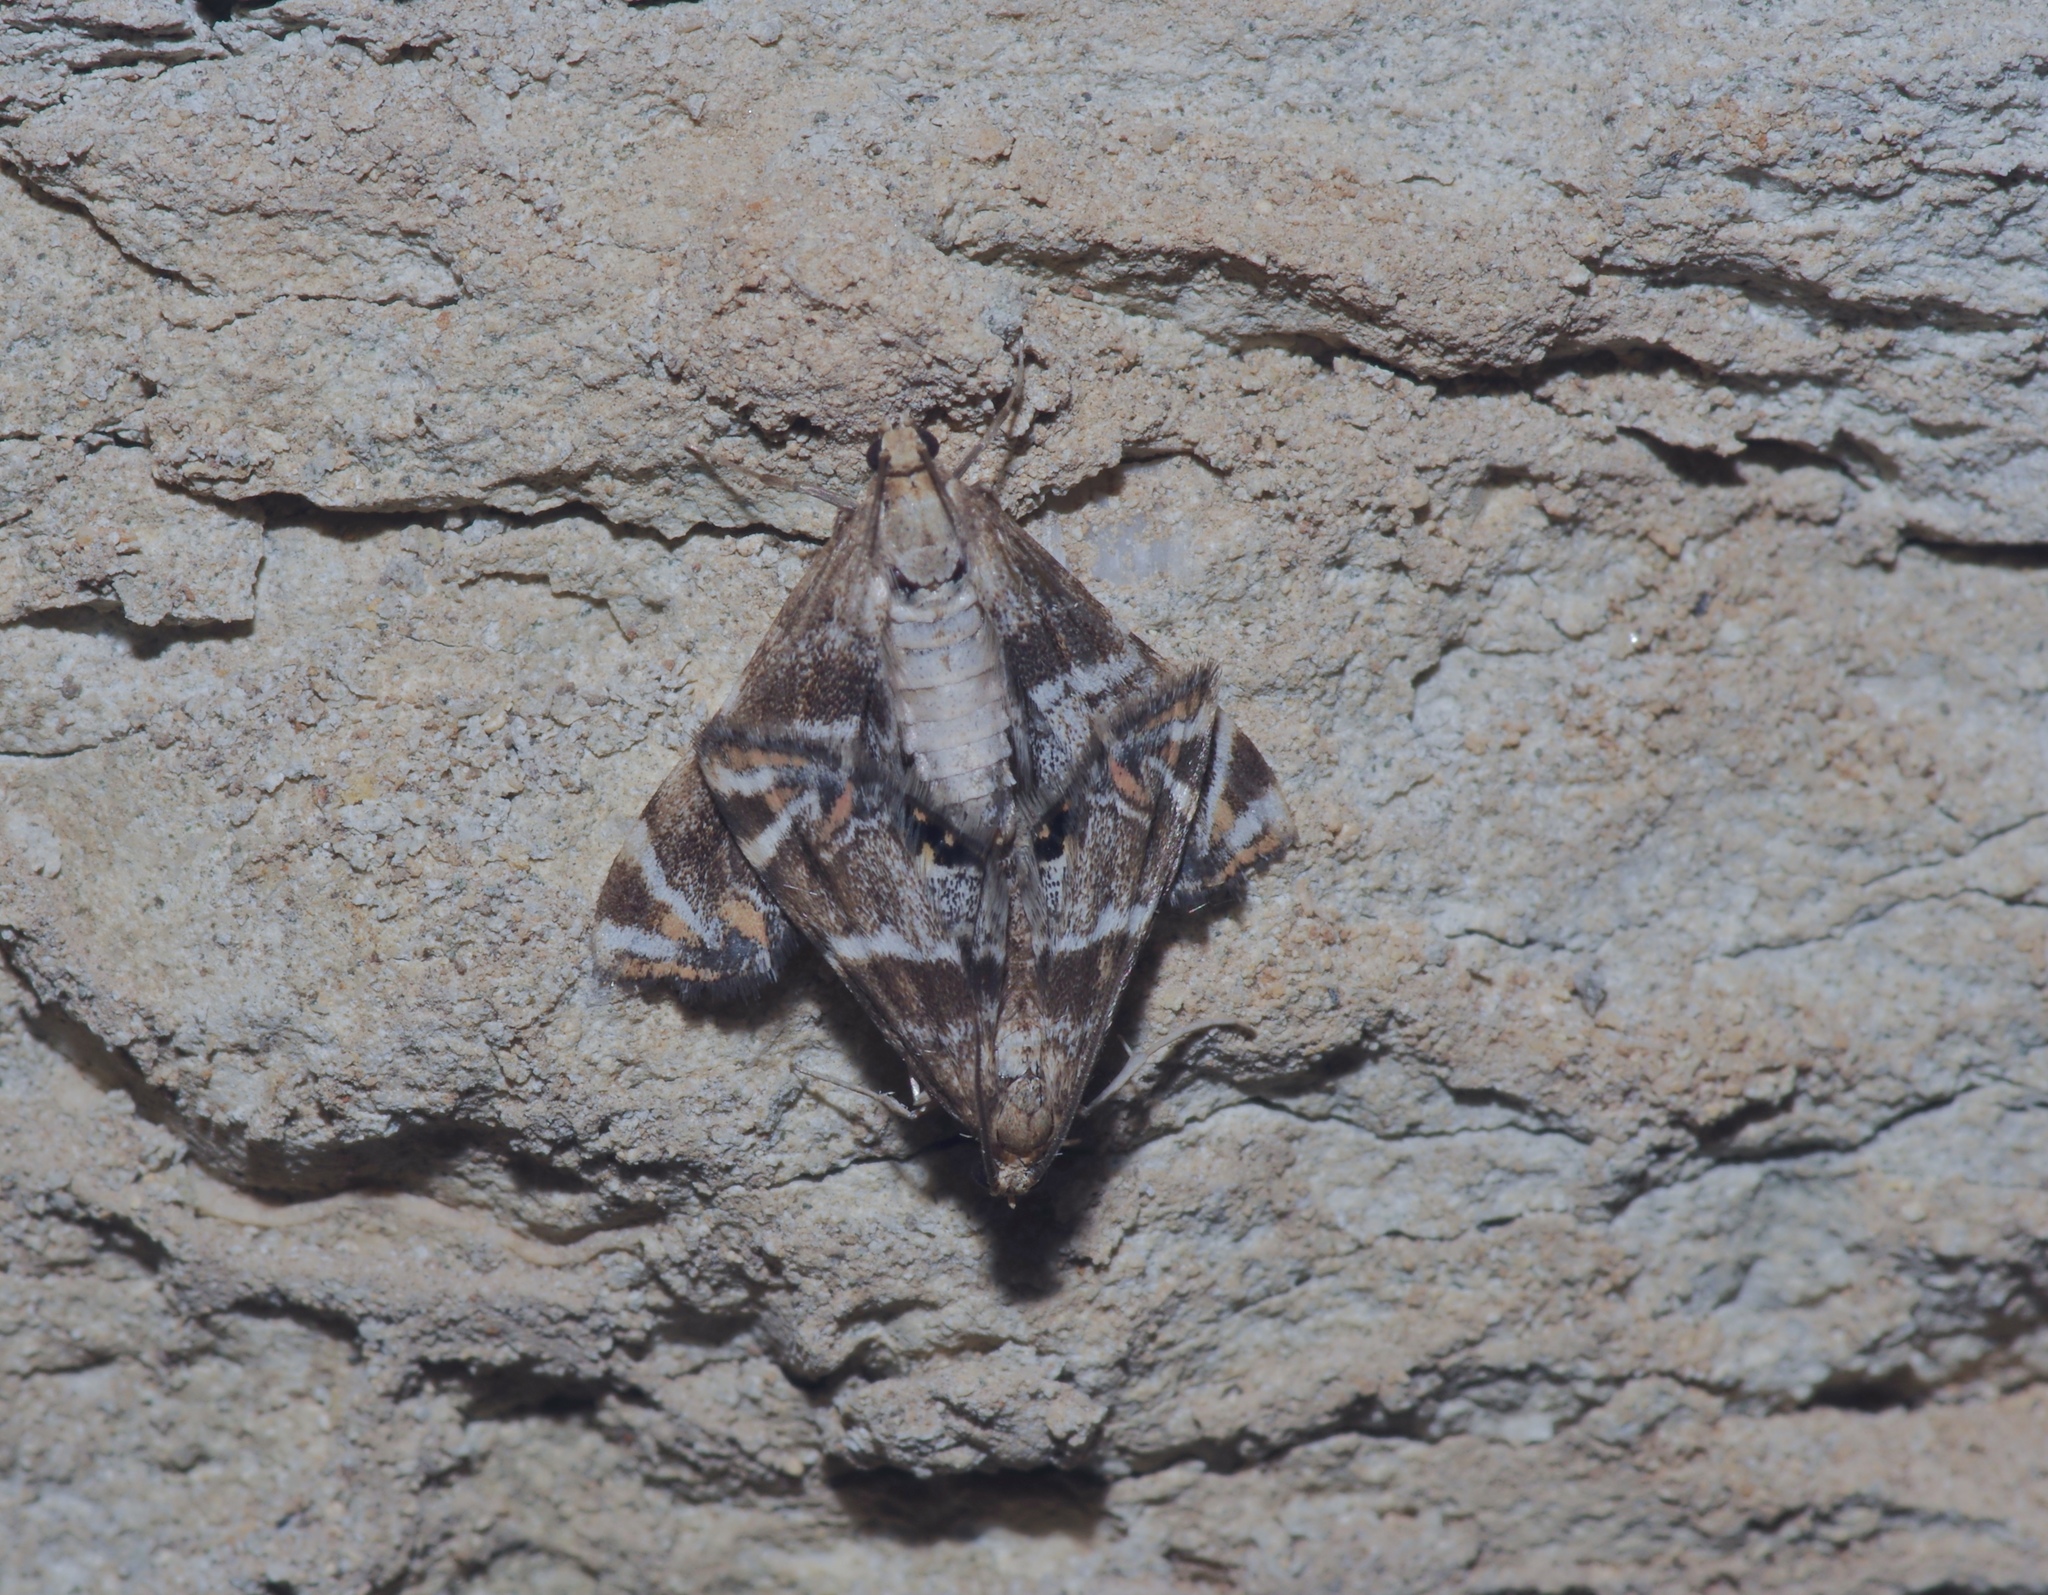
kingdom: Animalia
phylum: Arthropoda
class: Insecta
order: Lepidoptera
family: Crambidae
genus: Petrophila
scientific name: Petrophila jaliscalis
